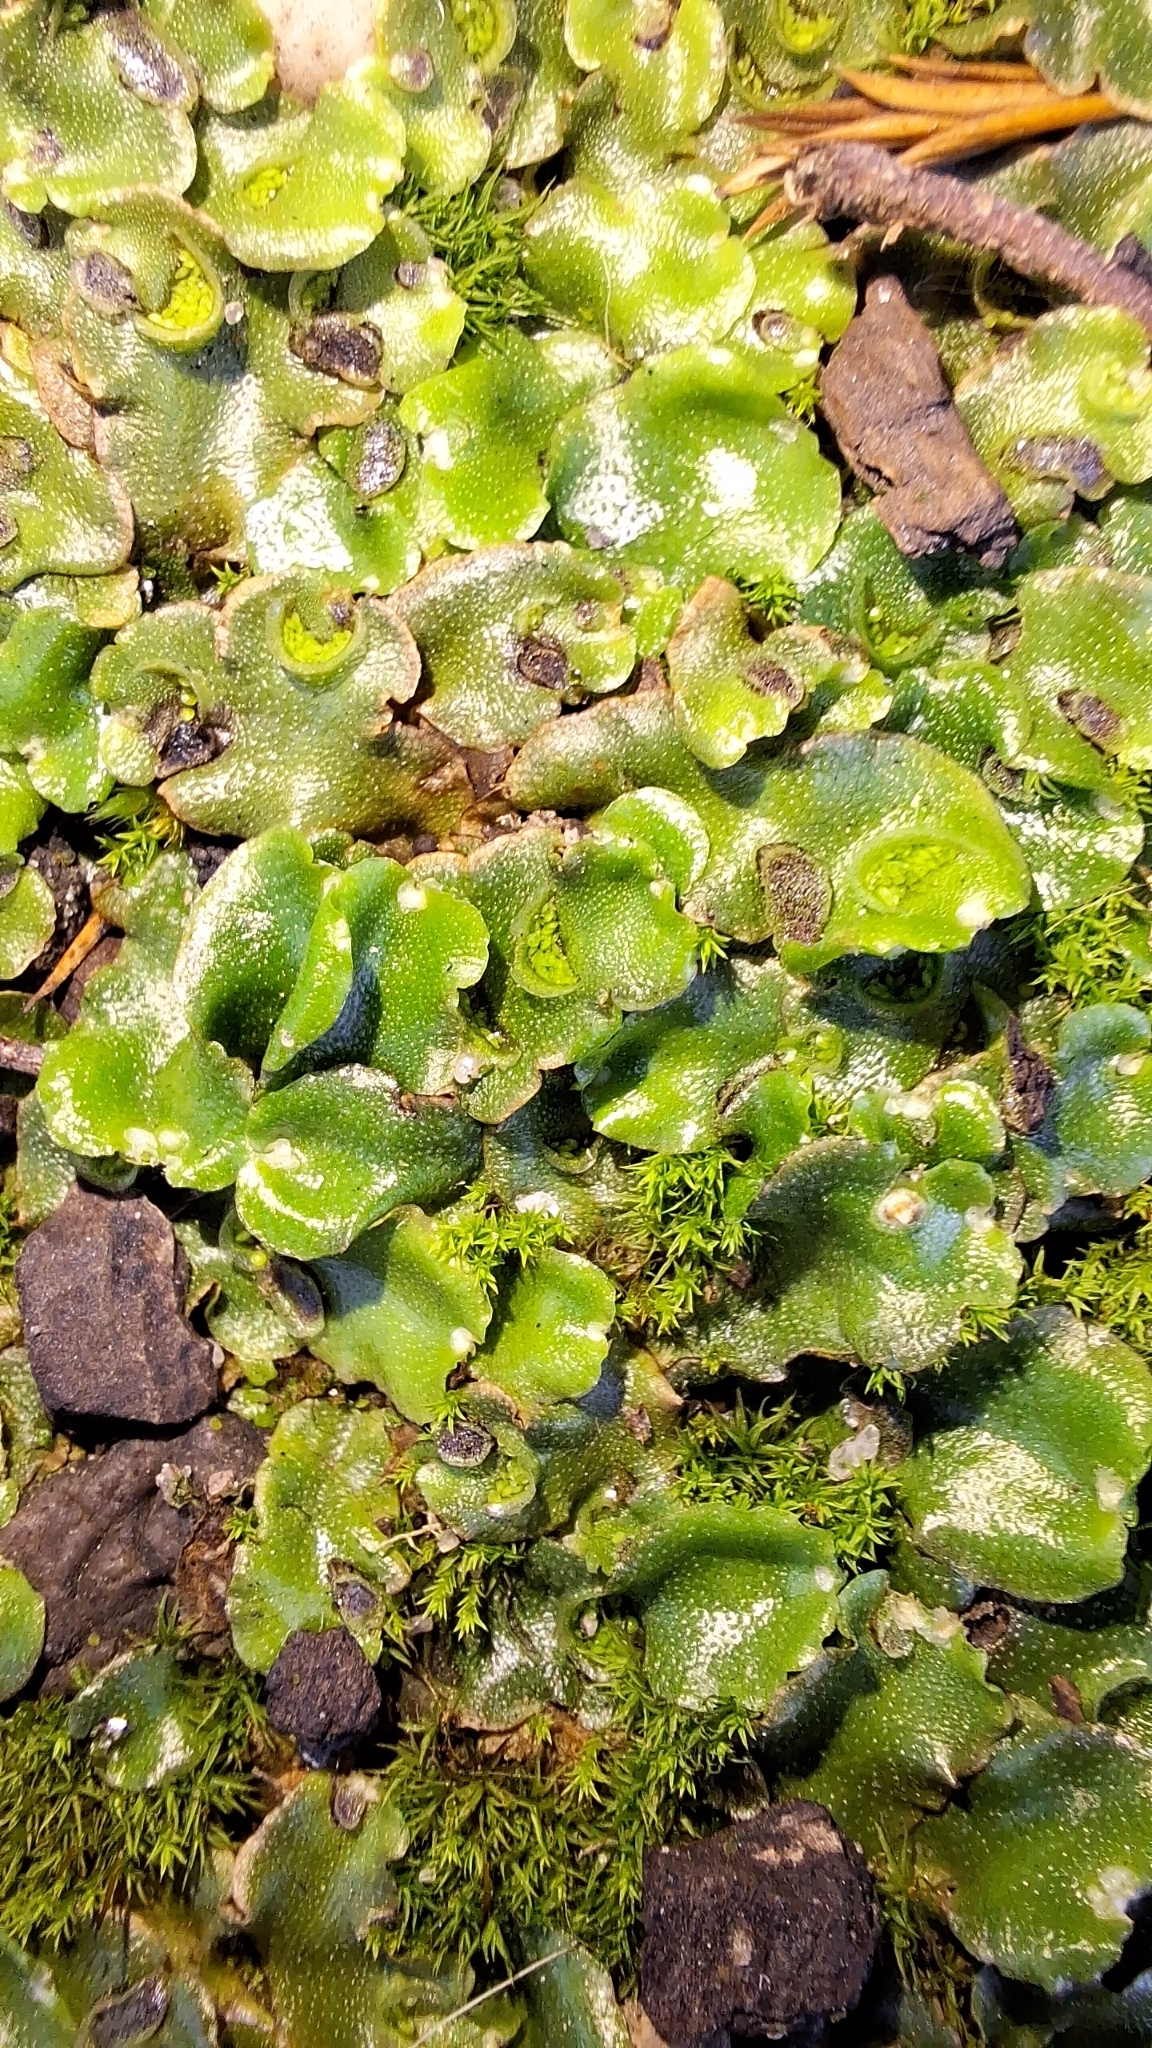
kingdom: Plantae
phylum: Marchantiophyta
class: Marchantiopsida
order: Lunulariales
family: Lunulariaceae
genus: Lunularia
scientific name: Lunularia cruciata
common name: Crescent-cup liverwort
